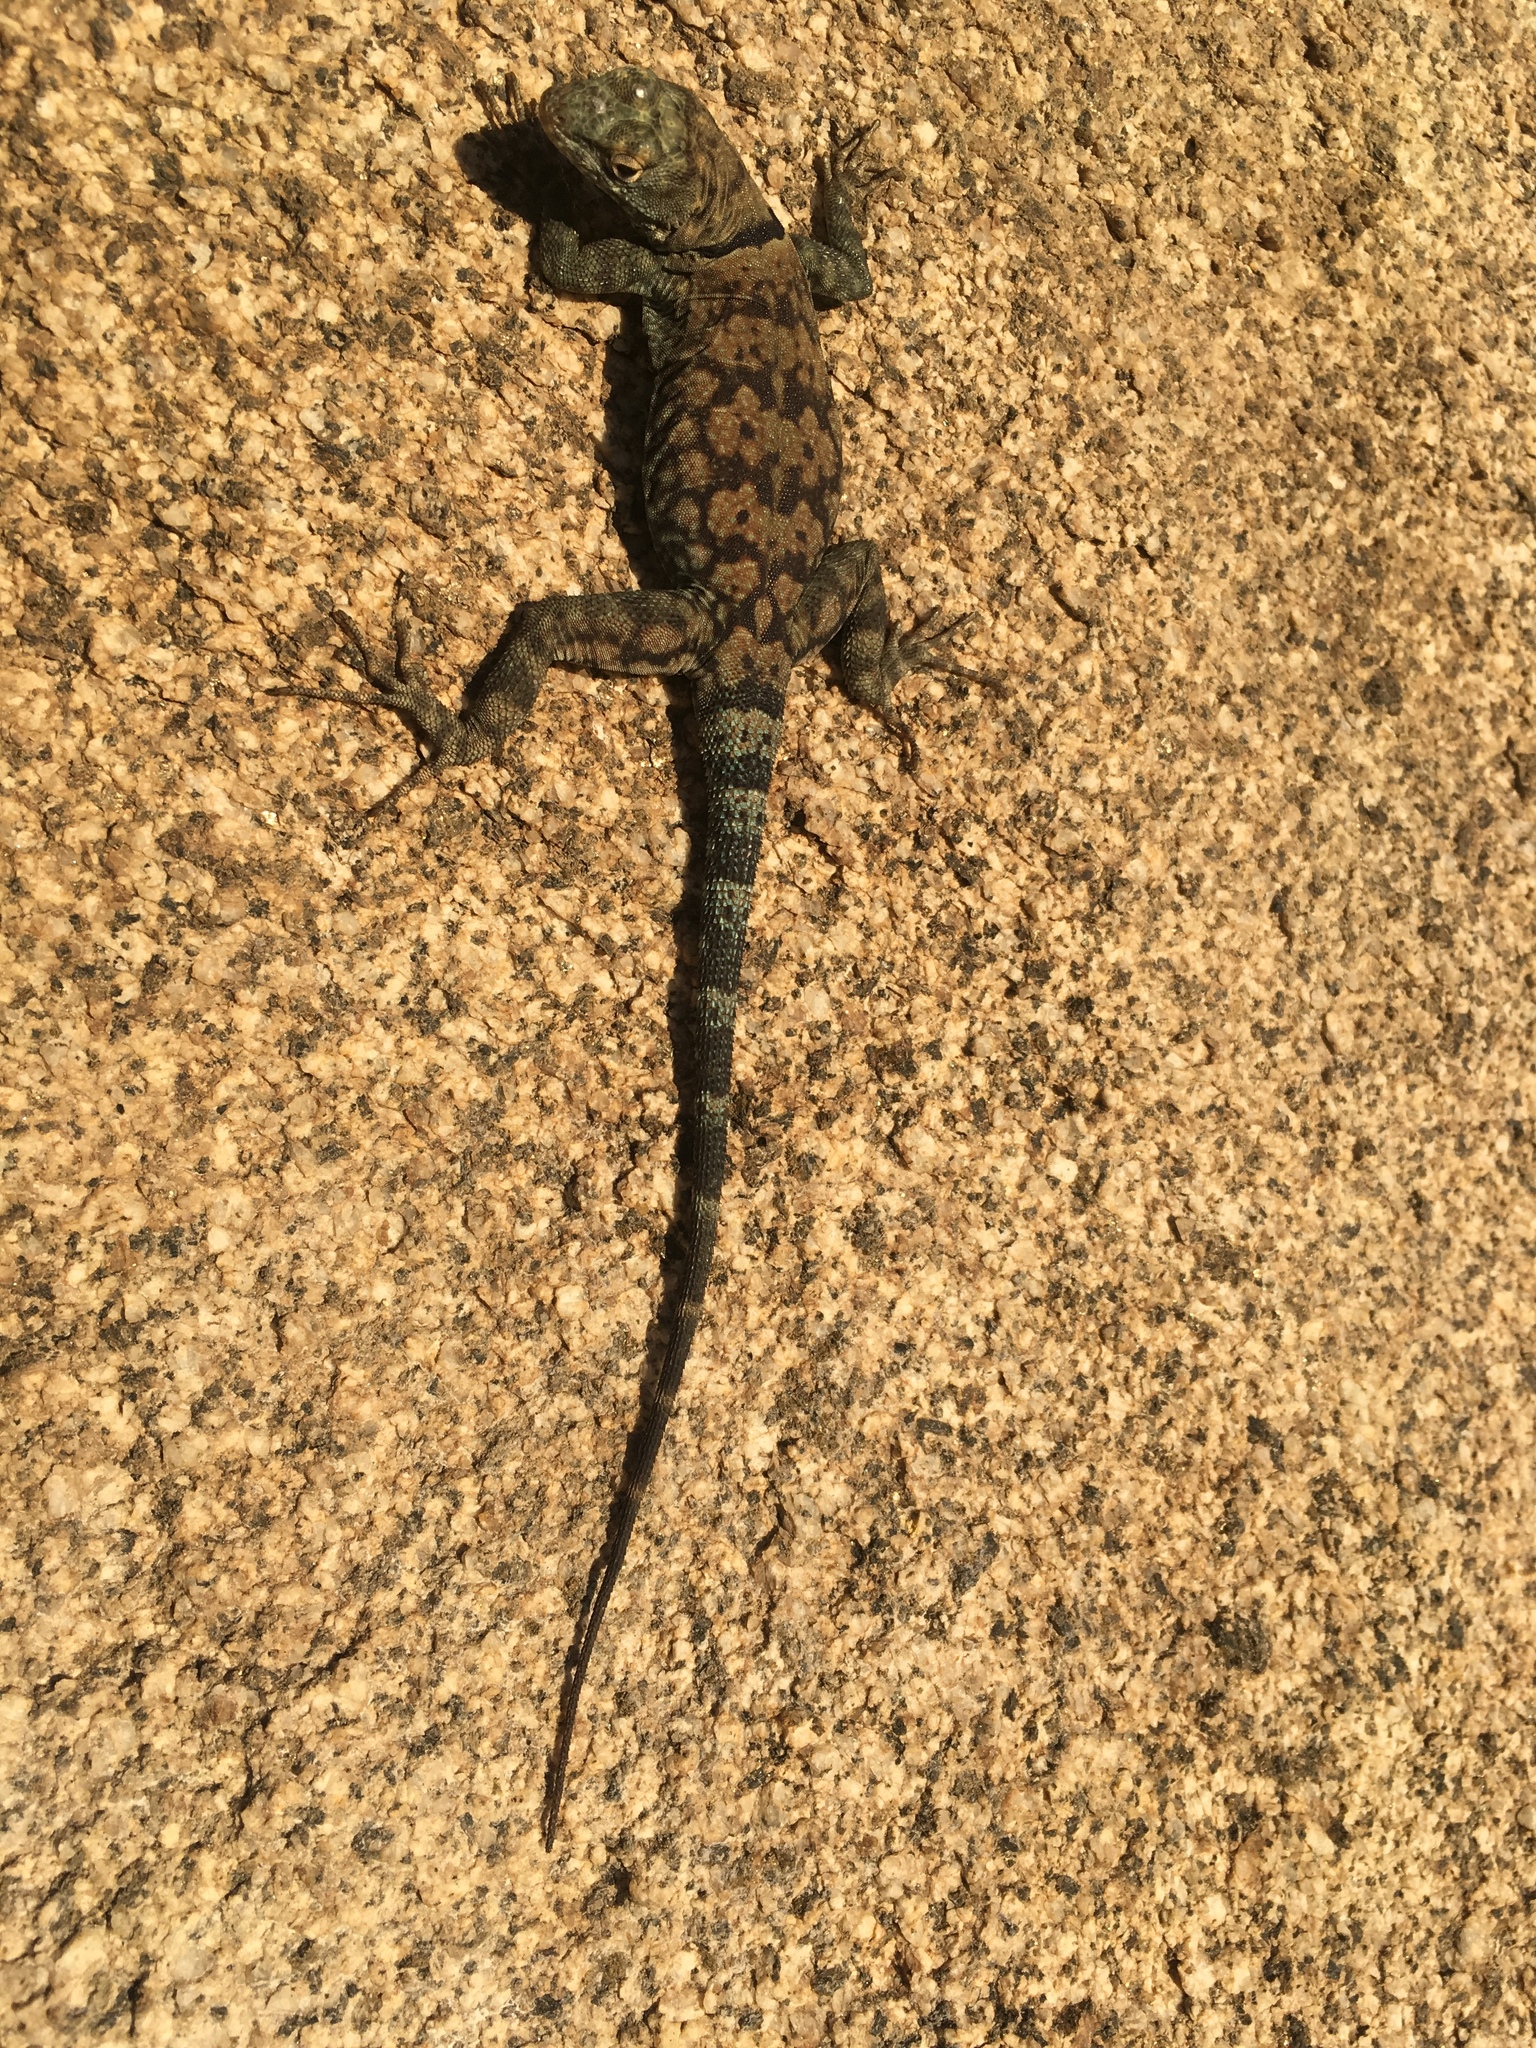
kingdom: Animalia
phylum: Chordata
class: Squamata
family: Phrynosomatidae
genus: Petrosaurus
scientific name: Petrosaurus mearnsi
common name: Banded rock lizard
